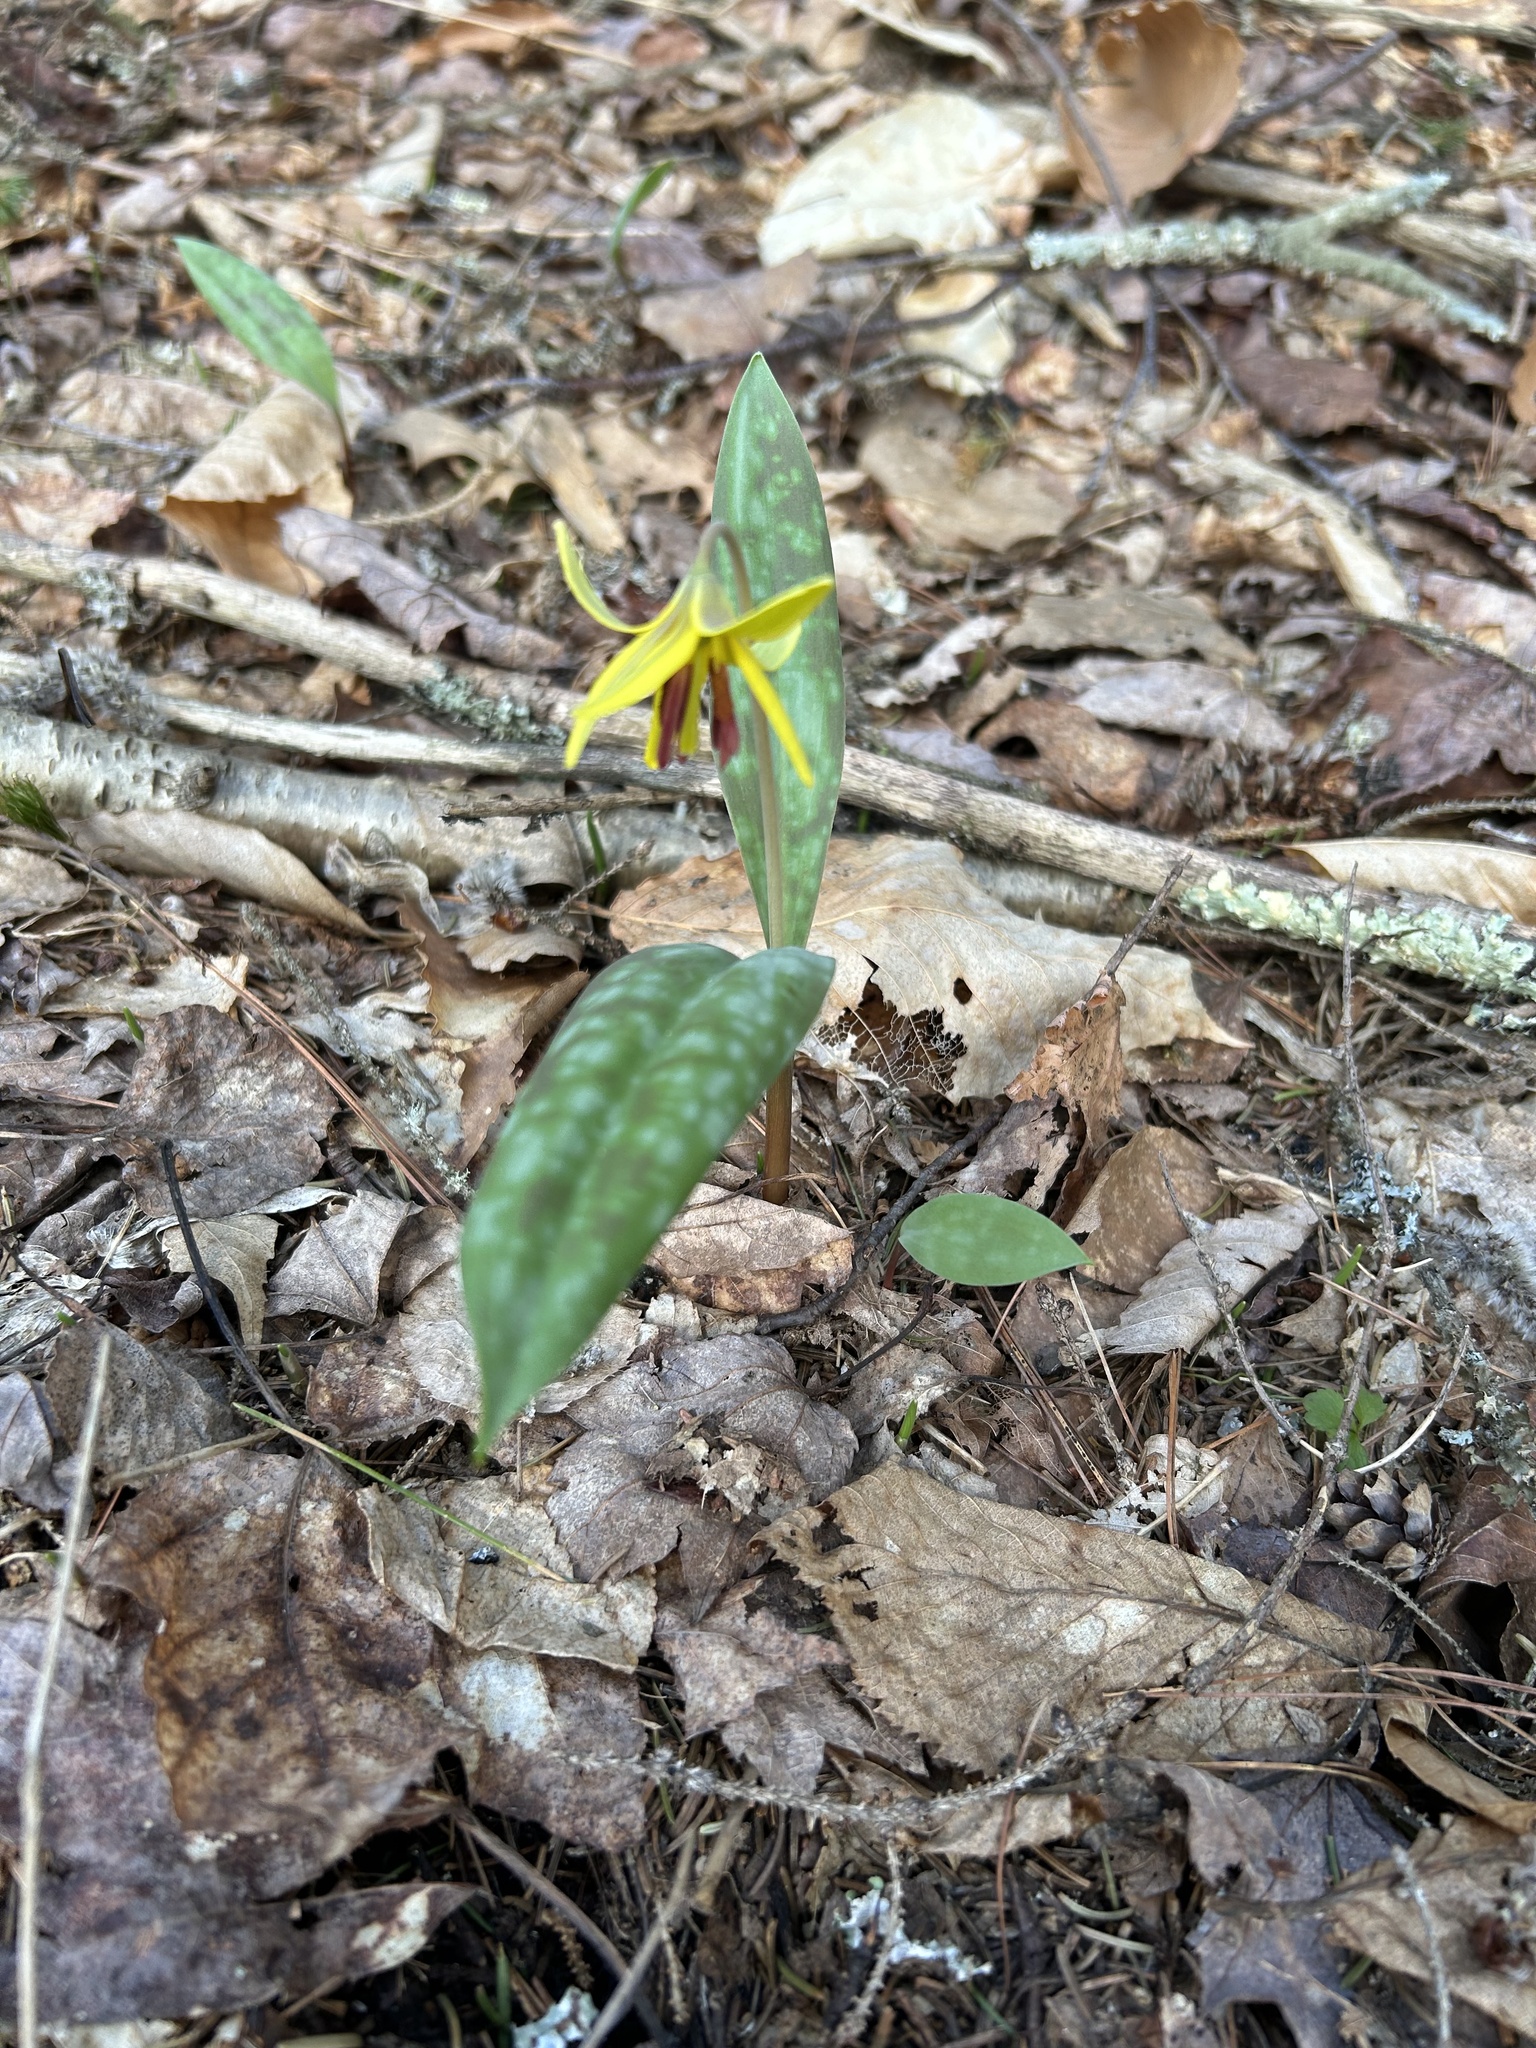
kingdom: Plantae
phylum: Tracheophyta
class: Liliopsida
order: Liliales
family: Liliaceae
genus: Erythronium
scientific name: Erythronium americanum
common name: Yellow adder's-tongue
